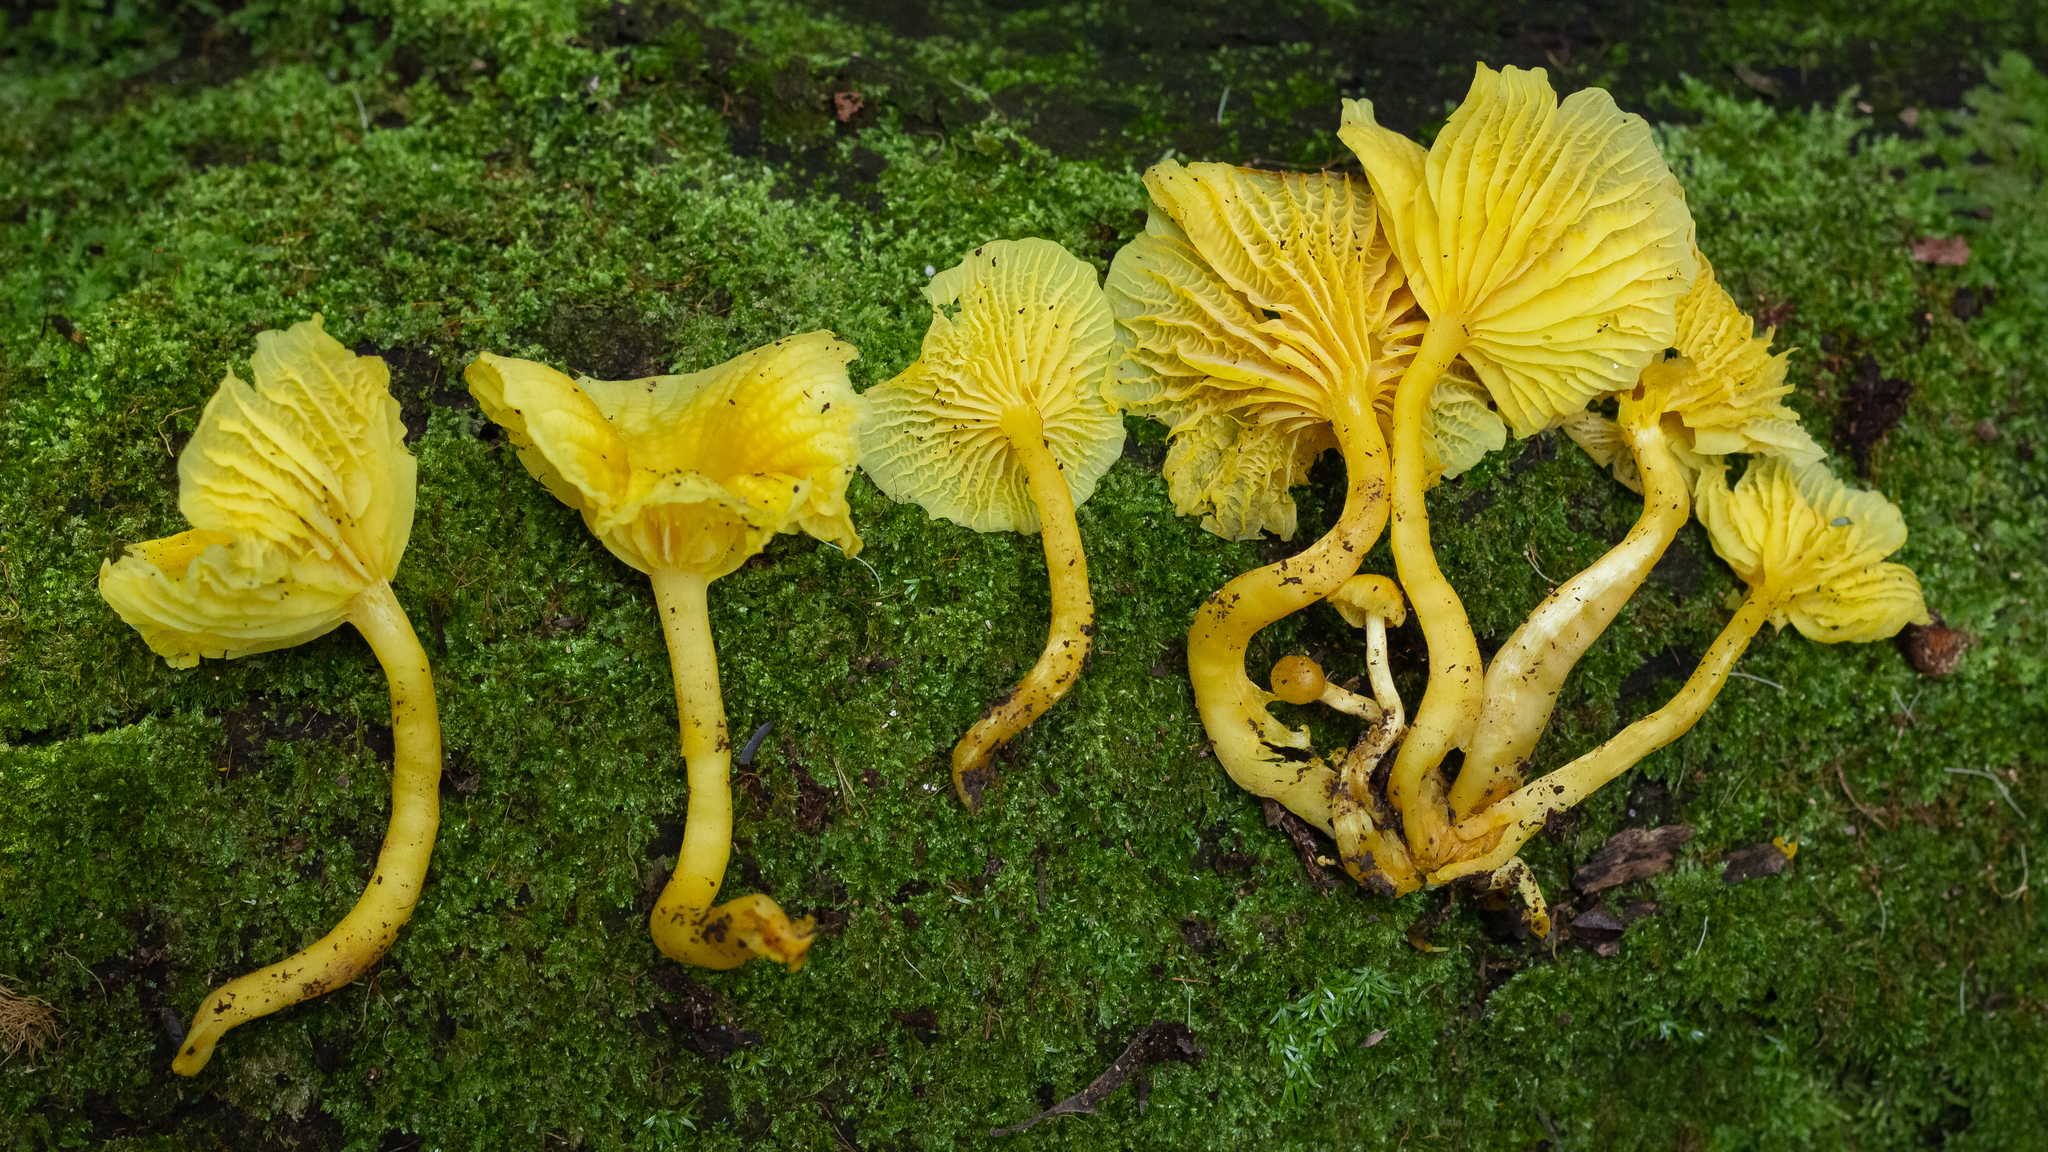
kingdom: Fungi
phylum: Basidiomycota
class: Agaricomycetes
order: Agaricales
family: Marasmiaceae
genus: Marasmius
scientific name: Marasmius rhyssophyllus
